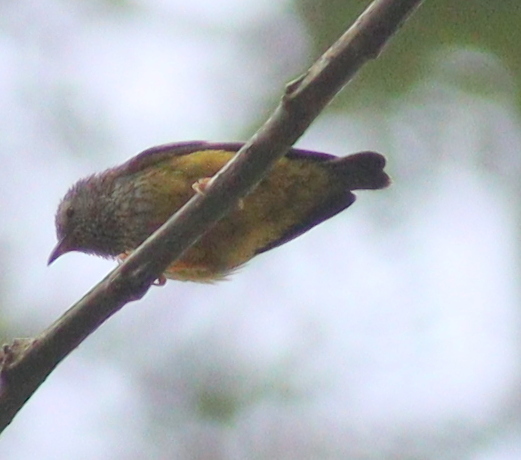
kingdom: Animalia
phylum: Chordata
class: Aves
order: Passeriformes
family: Cettiidae
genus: Pholidornis
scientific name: Pholidornis rushiae
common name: Tit-hylia
